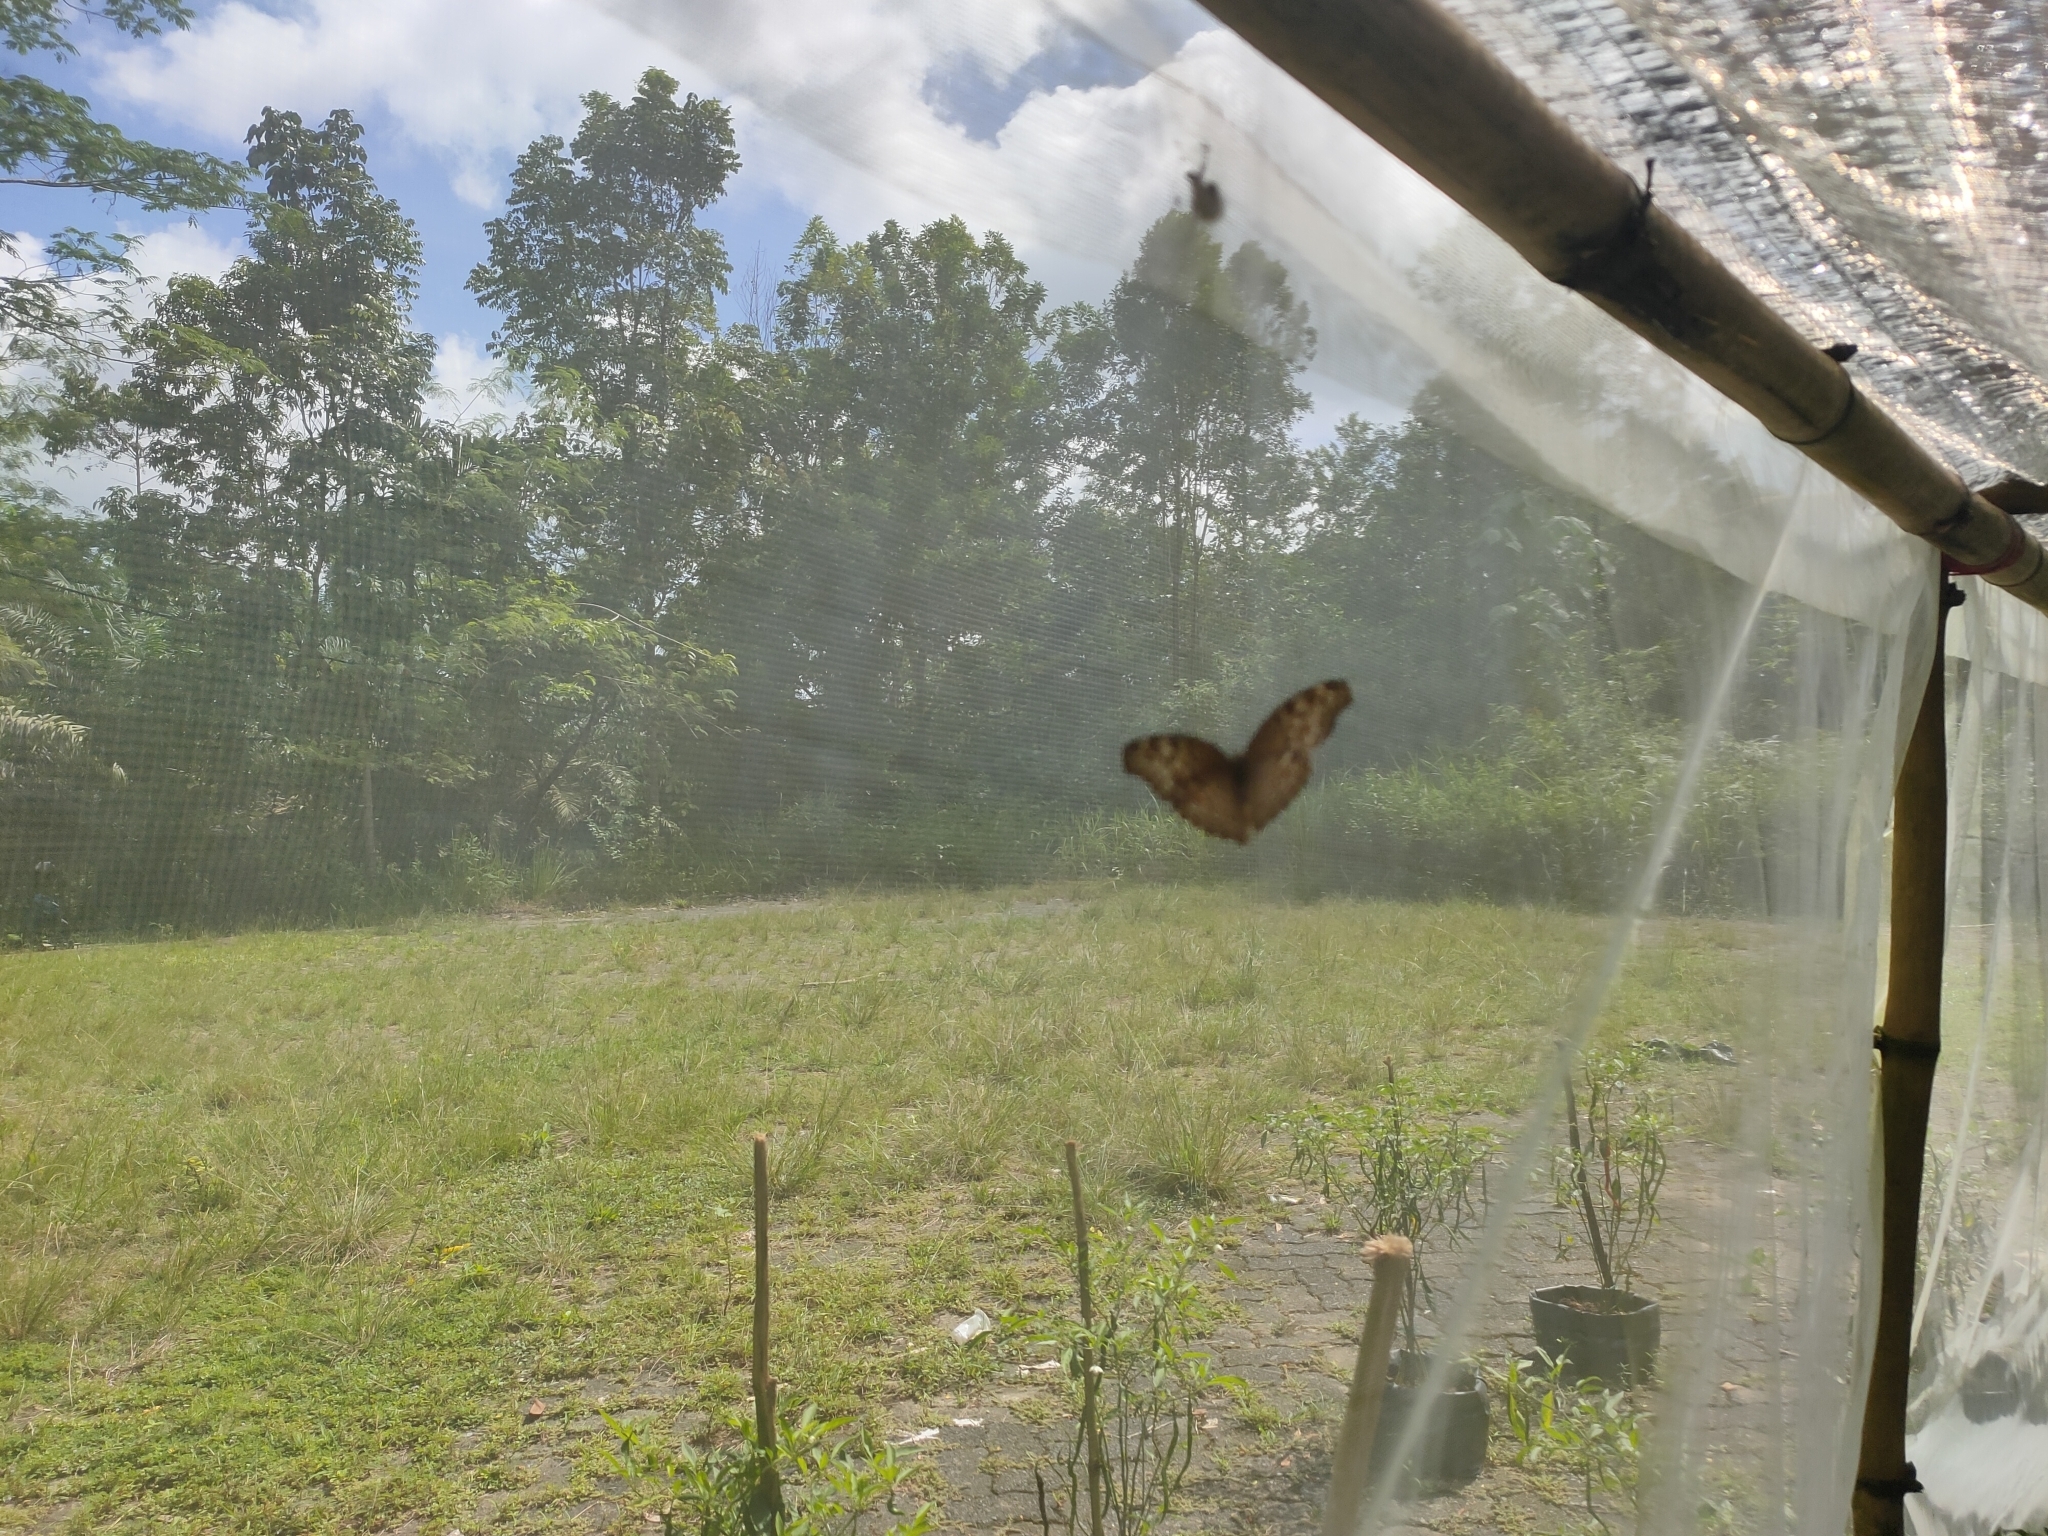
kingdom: Animalia
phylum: Arthropoda
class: Insecta
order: Lepidoptera
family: Nymphalidae
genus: Junonia
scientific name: Junonia atlites
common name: Grey pansy
